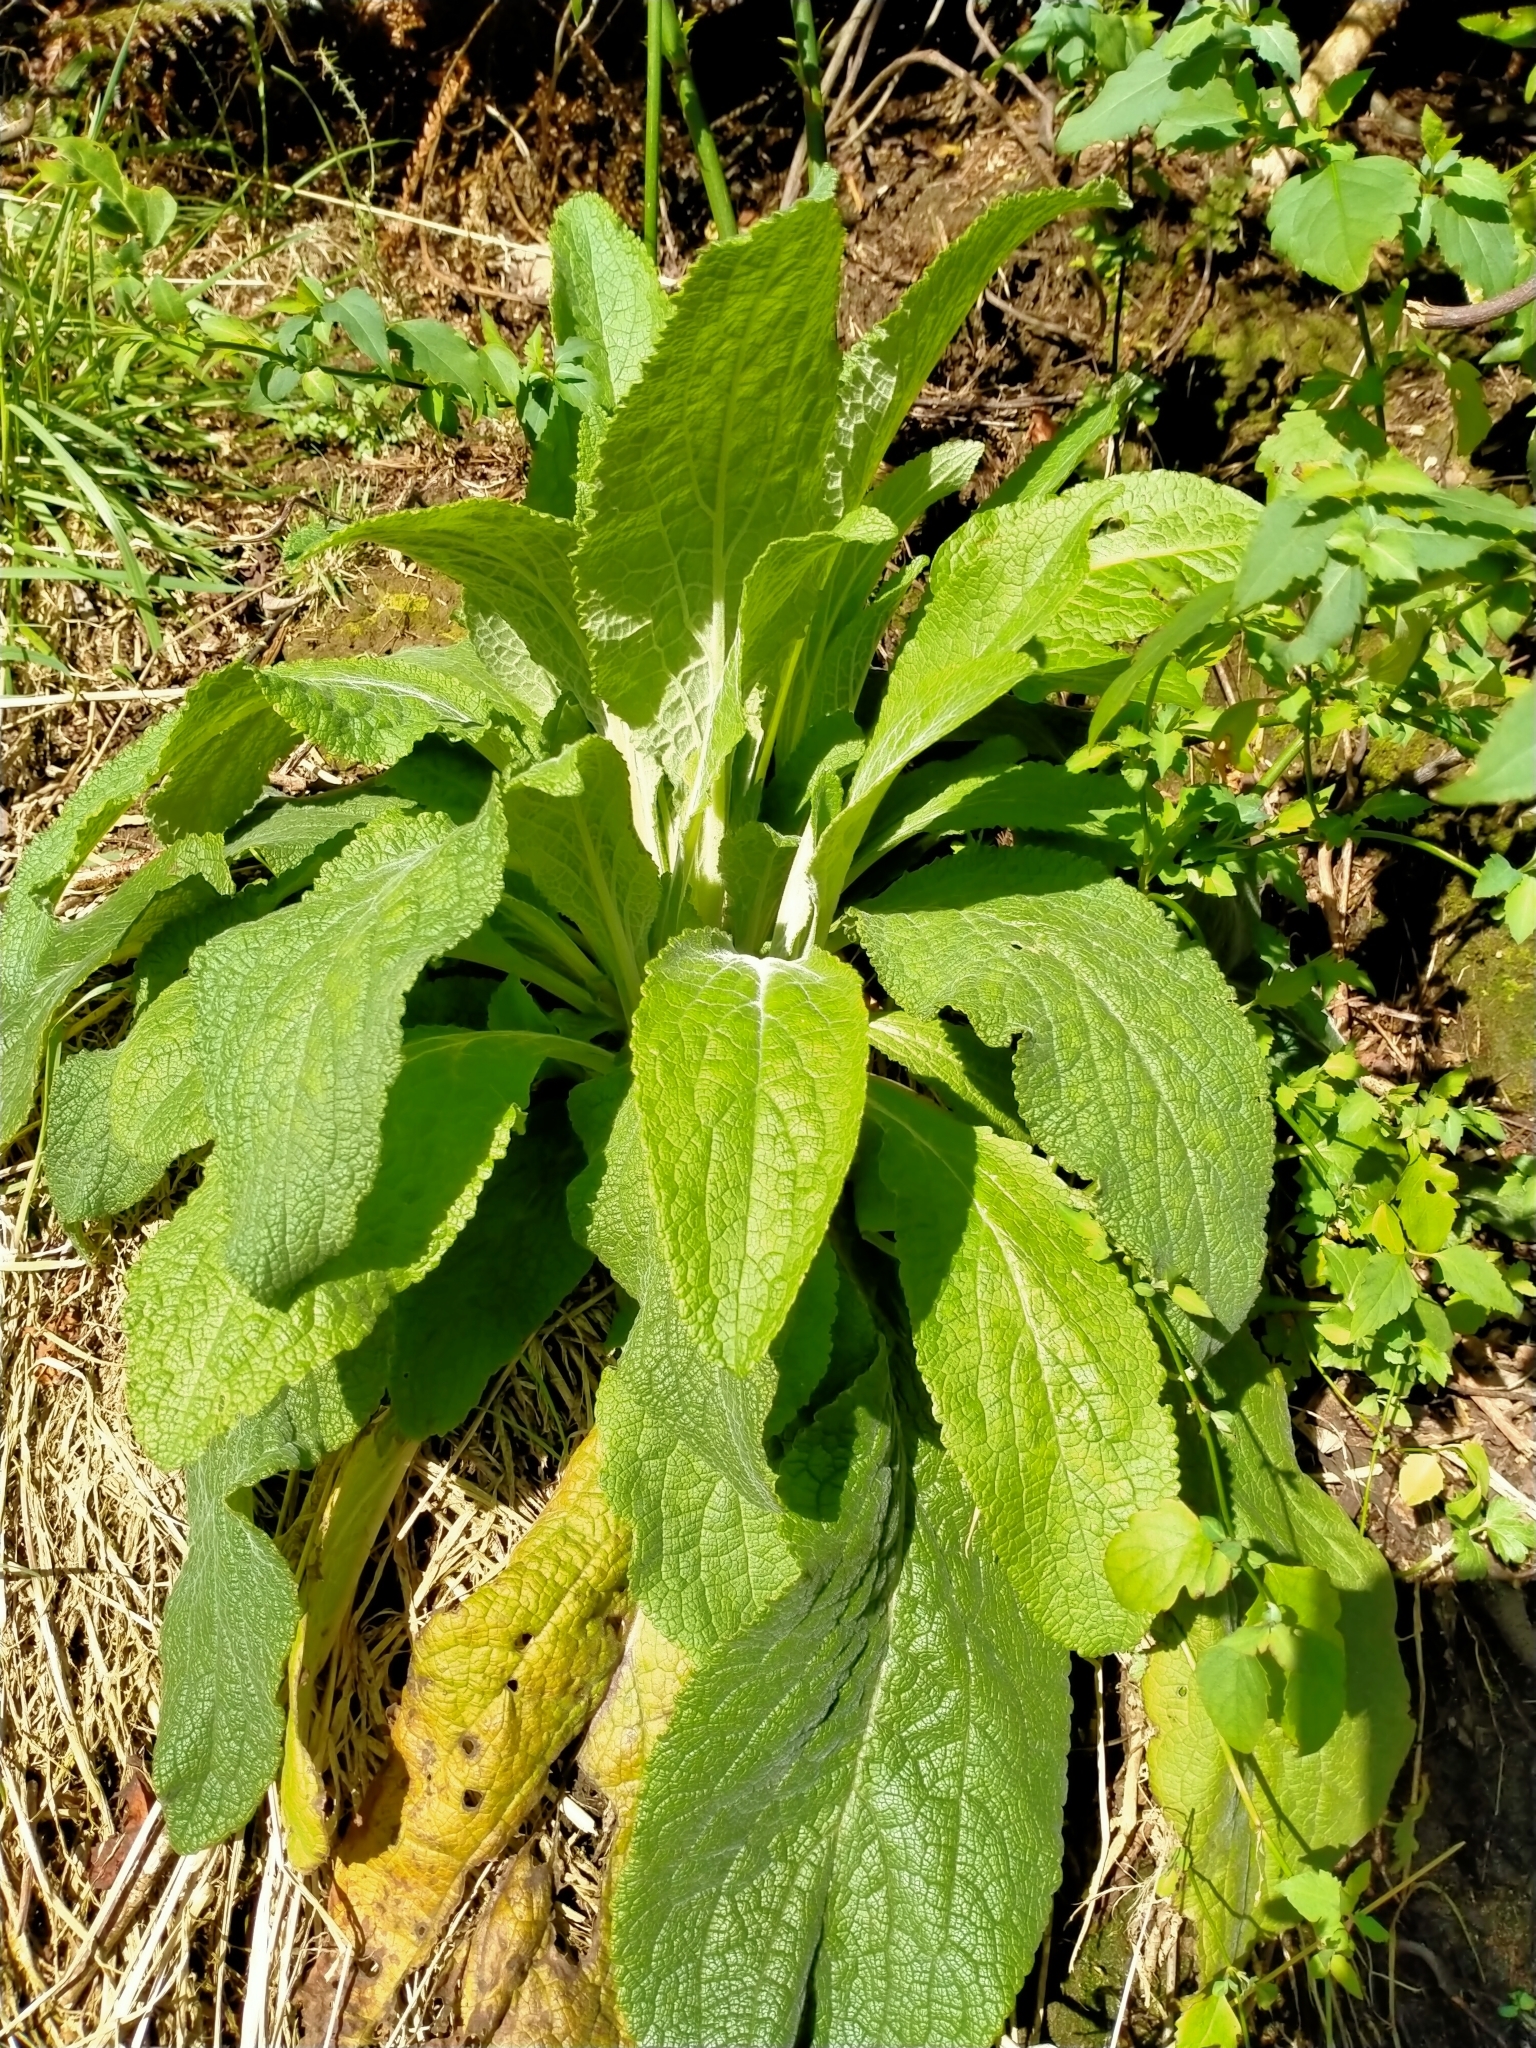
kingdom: Plantae
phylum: Tracheophyta
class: Magnoliopsida
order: Lamiales
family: Plantaginaceae
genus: Digitalis
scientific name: Digitalis purpurea
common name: Foxglove
